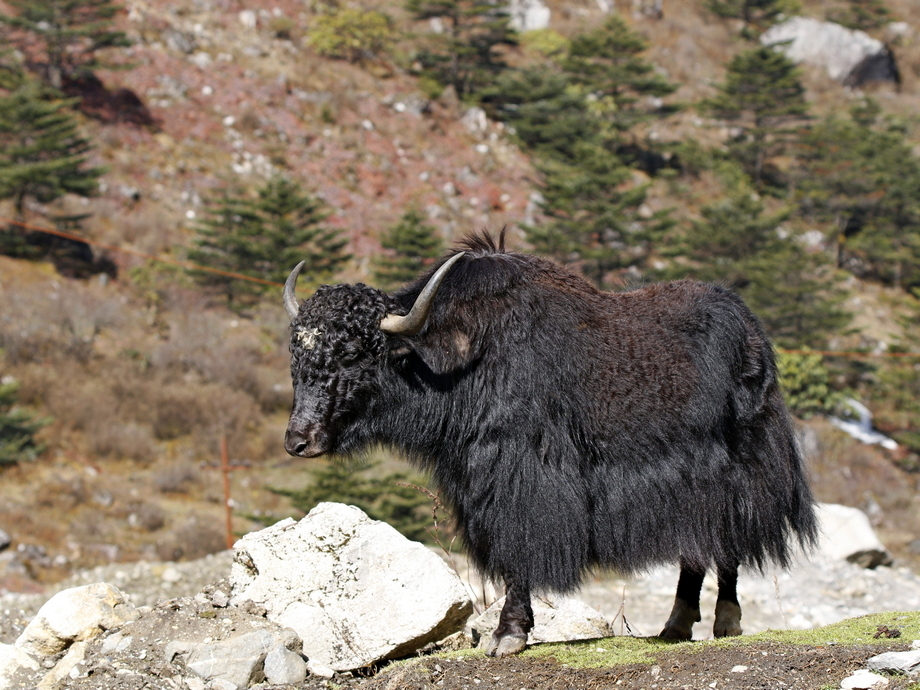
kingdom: Animalia
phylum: Chordata
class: Mammalia
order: Artiodactyla
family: Bovidae
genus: Bos
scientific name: Bos grunniens
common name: Yak
